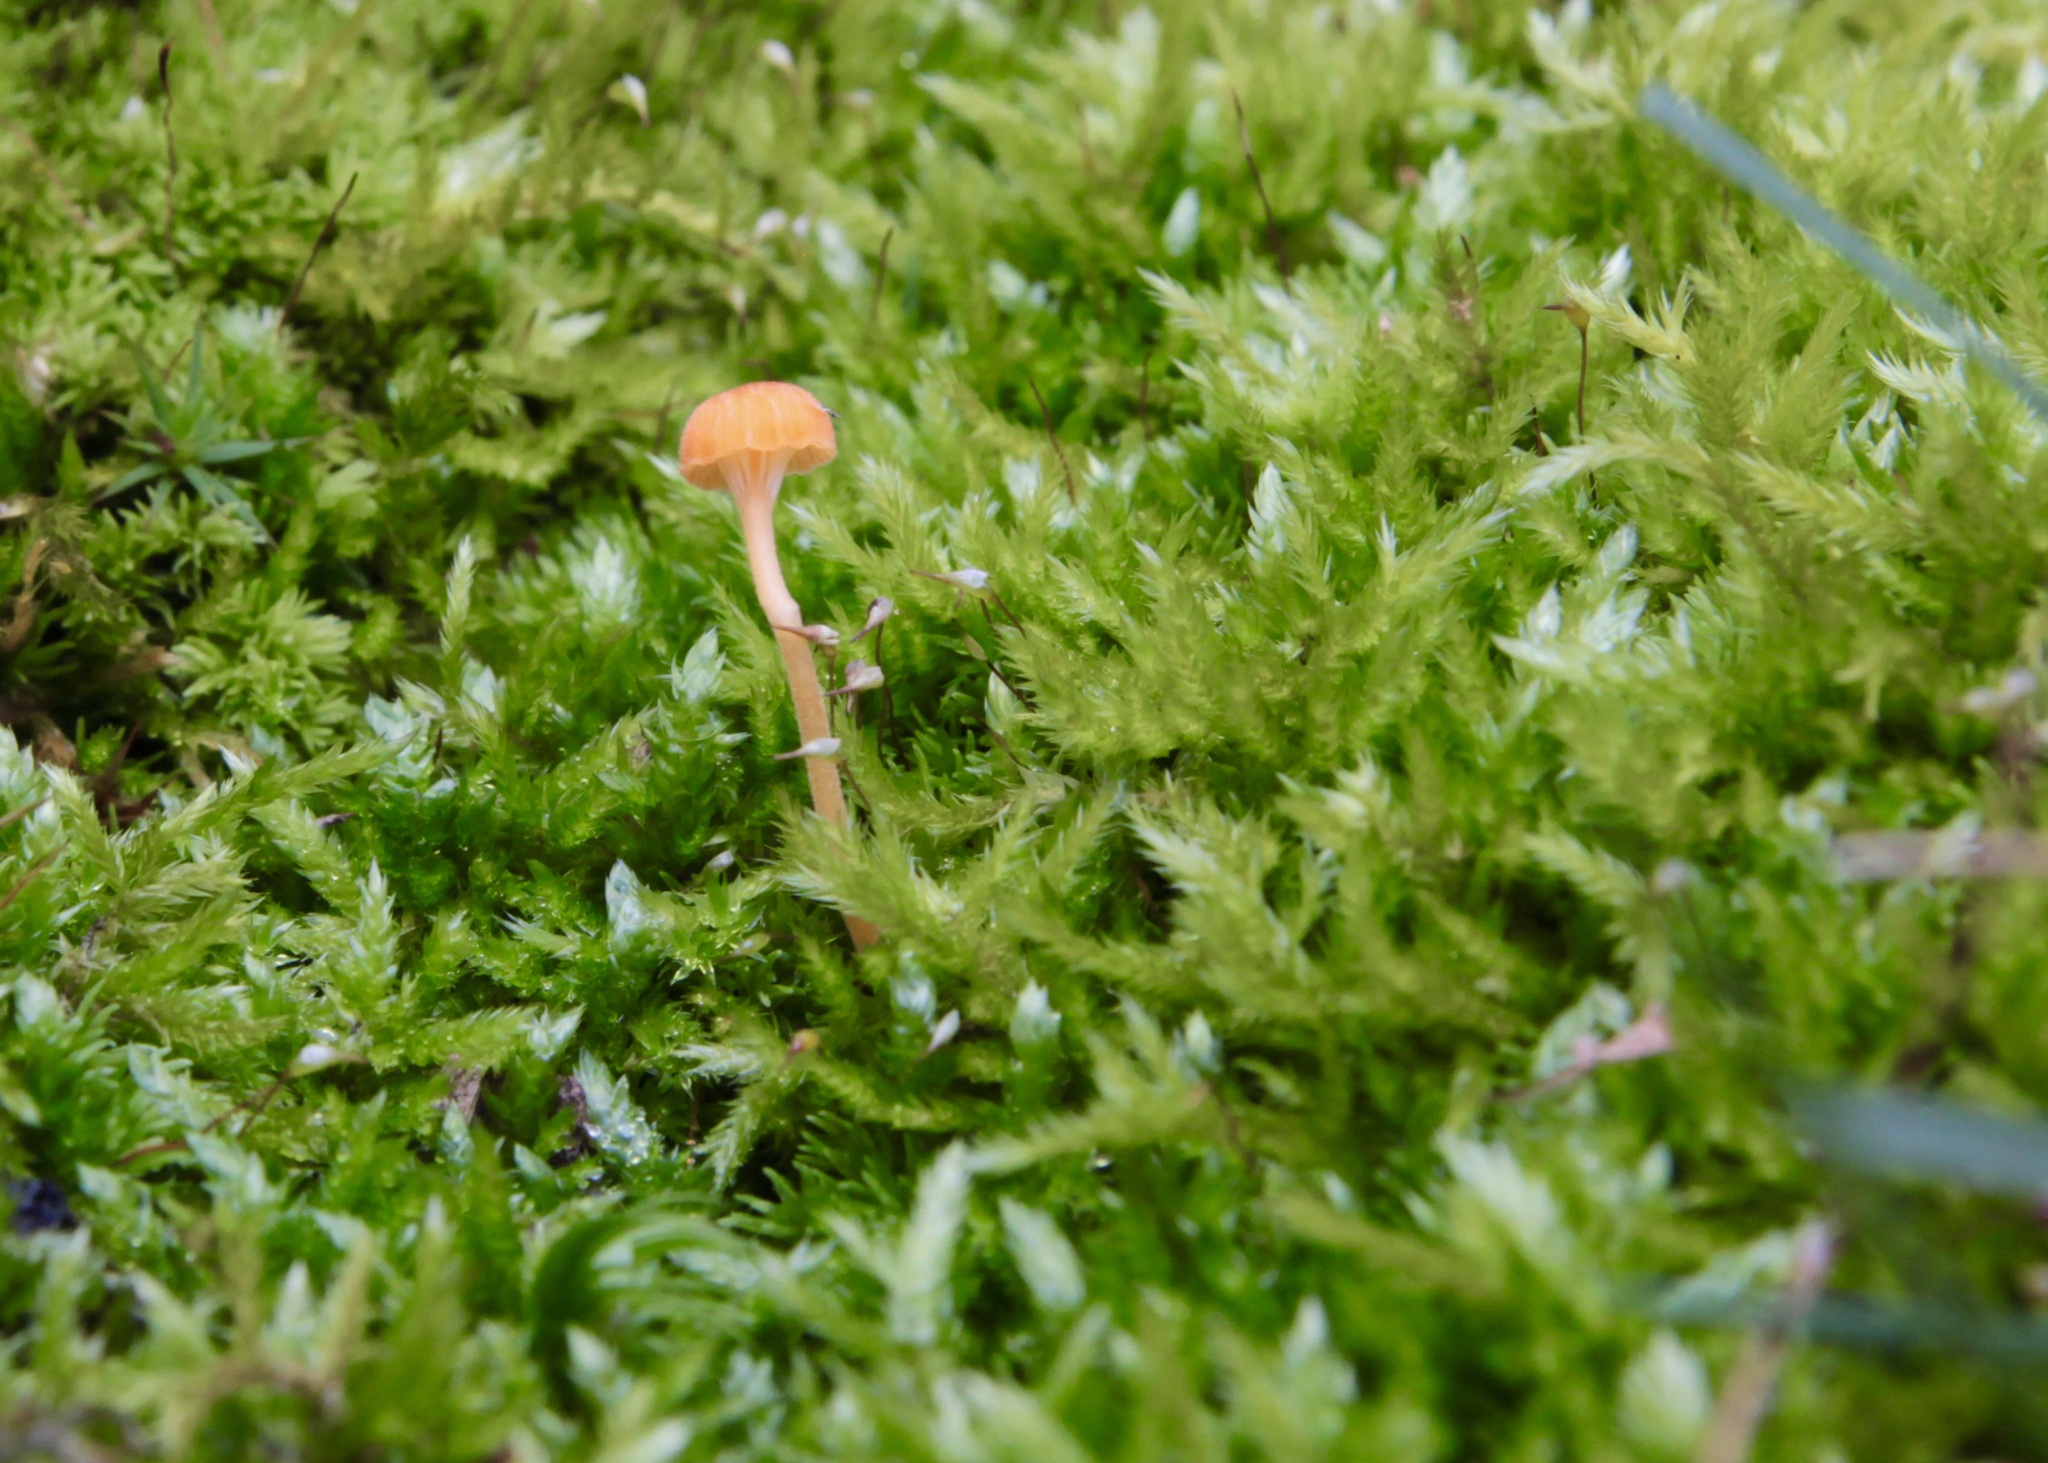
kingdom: Fungi
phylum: Basidiomycota
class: Agaricomycetes
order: Hymenochaetales
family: Rickenellaceae
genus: Rickenella
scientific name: Rickenella fibula
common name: Orange mosscap
